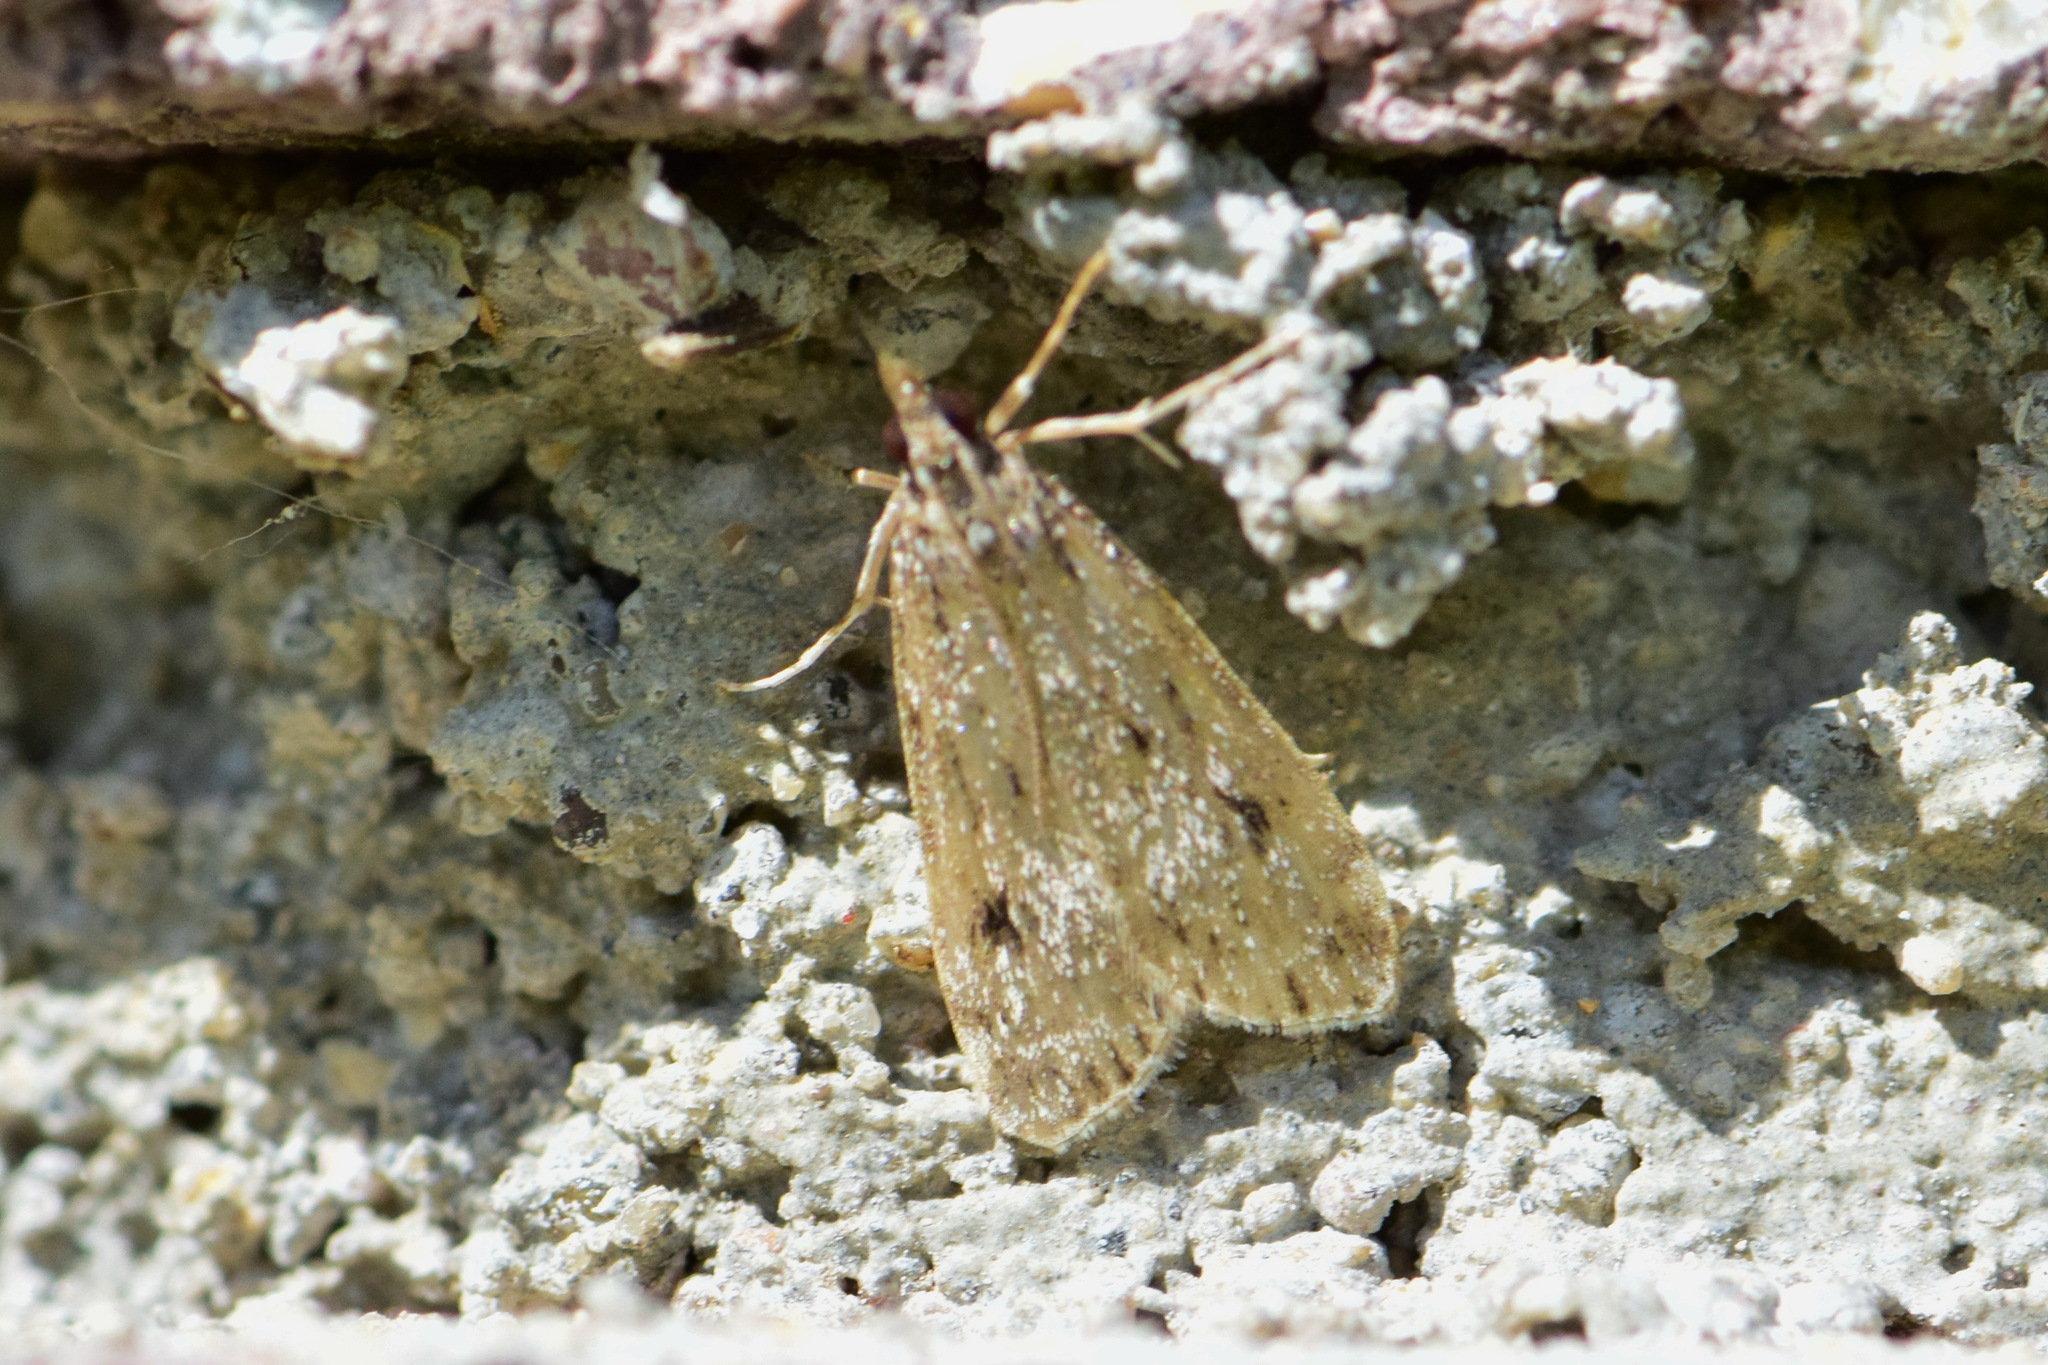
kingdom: Animalia
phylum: Arthropoda
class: Insecta
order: Lepidoptera
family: Crambidae
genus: Eudonia
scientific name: Eudonia truncicolella
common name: Ground-moss grey
